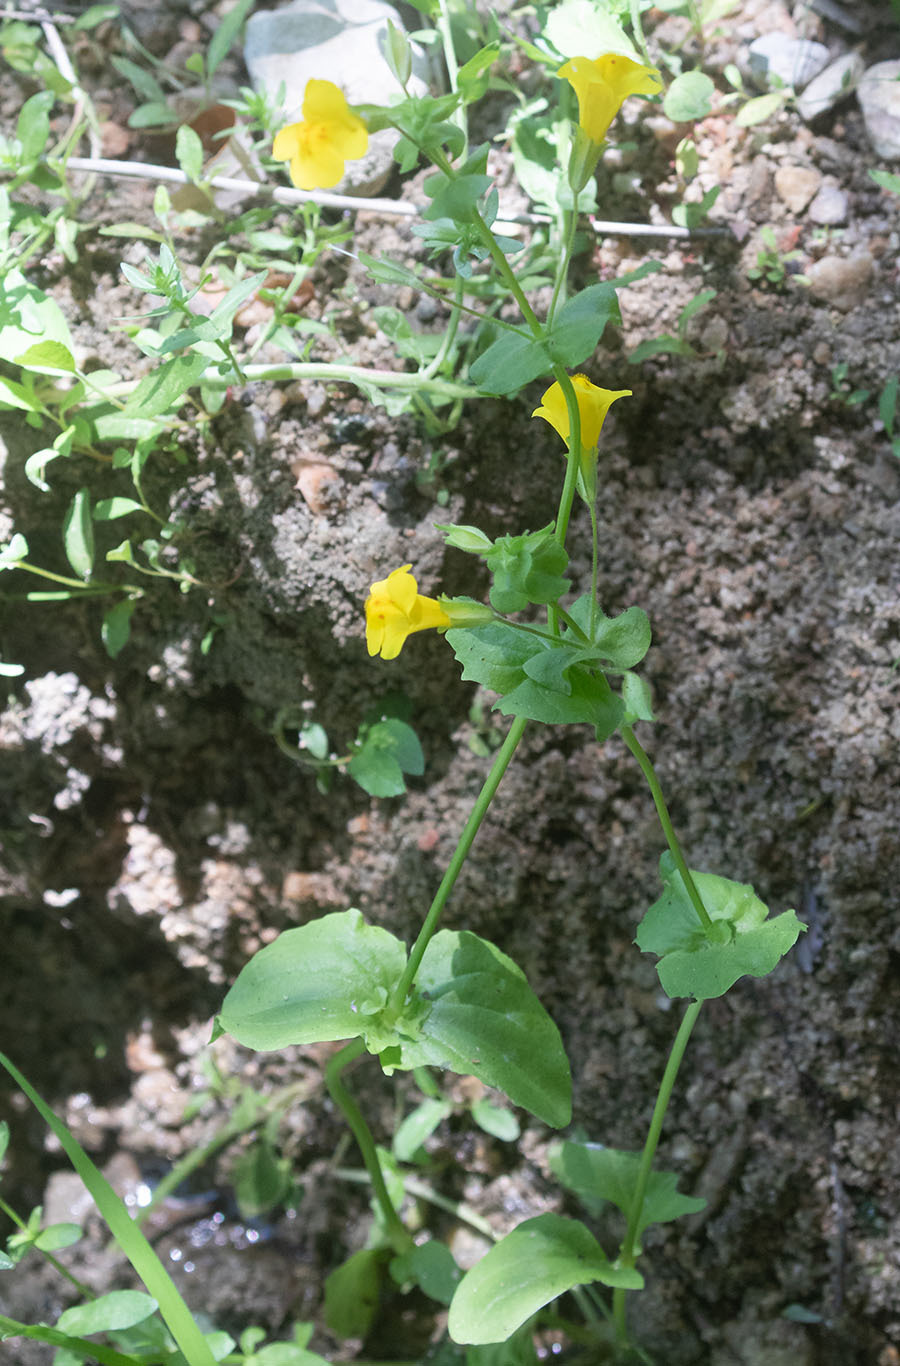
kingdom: Plantae
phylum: Tracheophyta
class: Magnoliopsida
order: Lamiales
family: Phrymaceae
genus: Erythranthe
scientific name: Erythranthe guttata
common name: Monkeyflower
